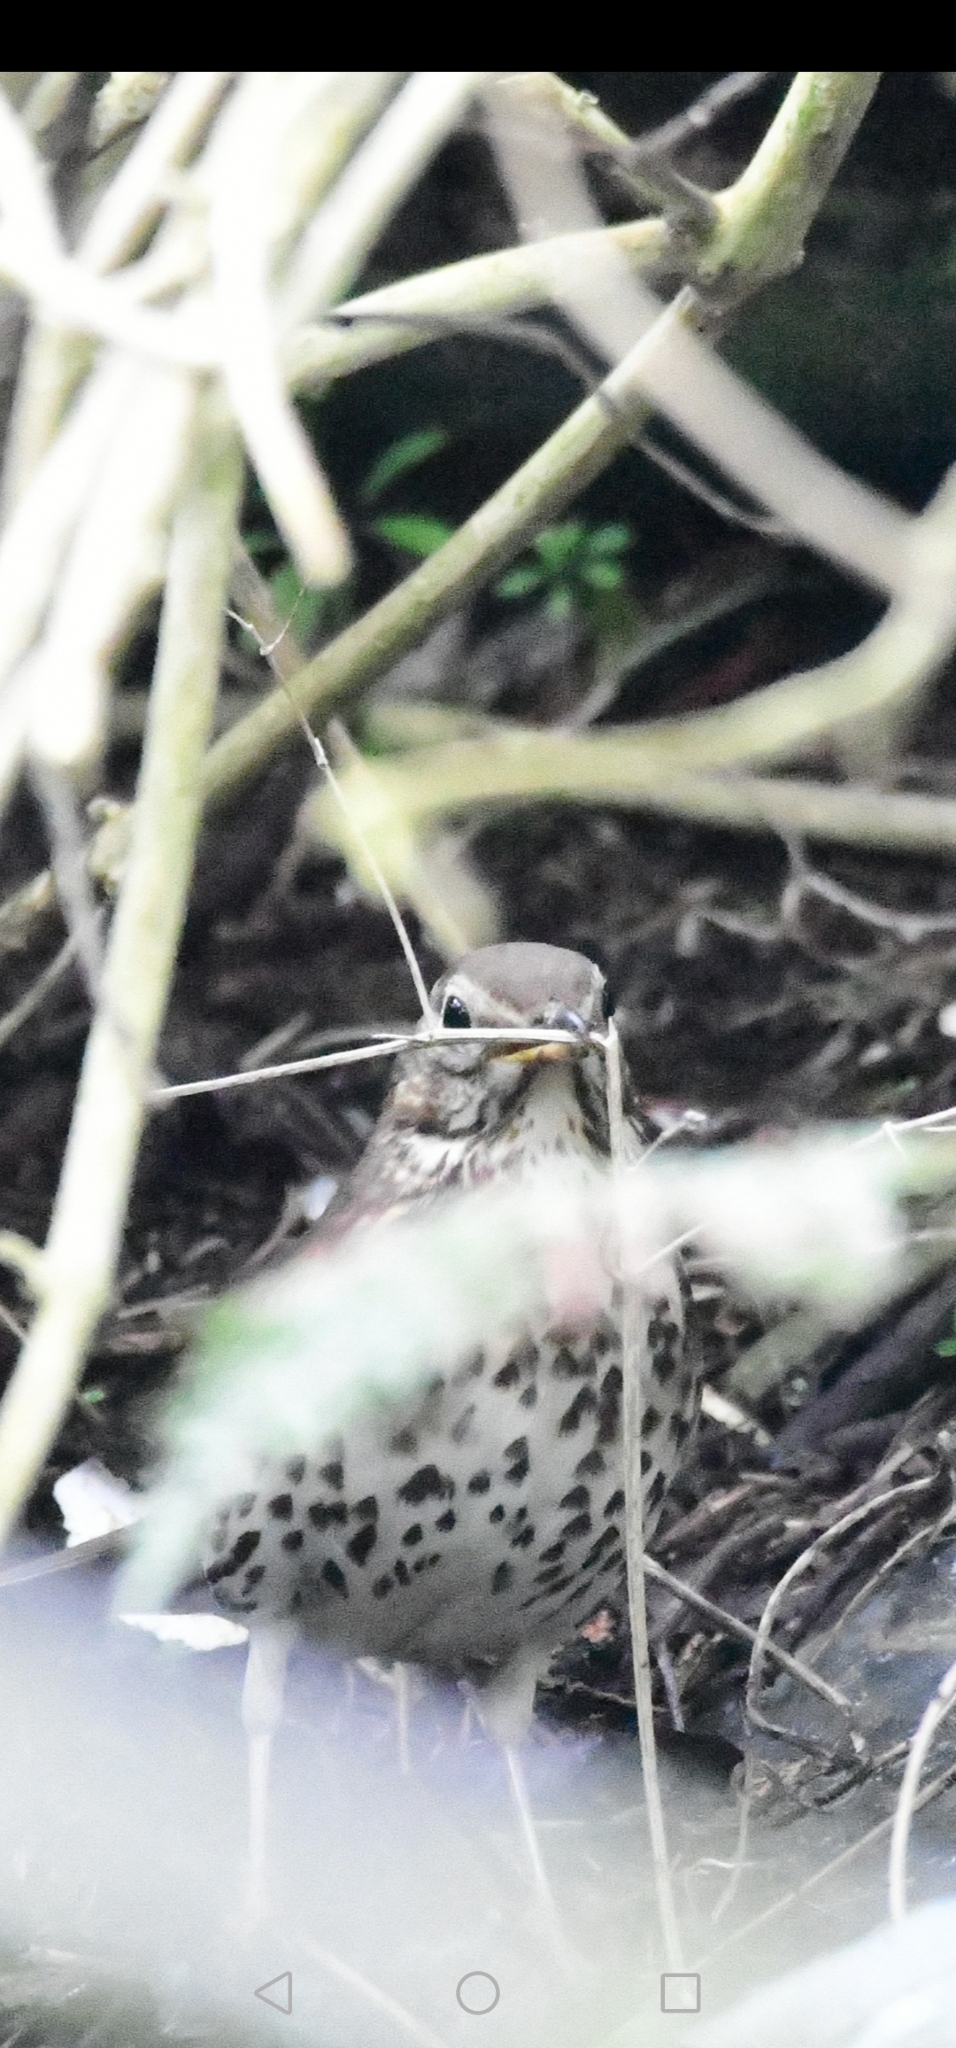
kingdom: Animalia
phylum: Chordata
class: Aves
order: Passeriformes
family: Turdidae
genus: Turdus
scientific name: Turdus philomelos
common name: Song thrush
